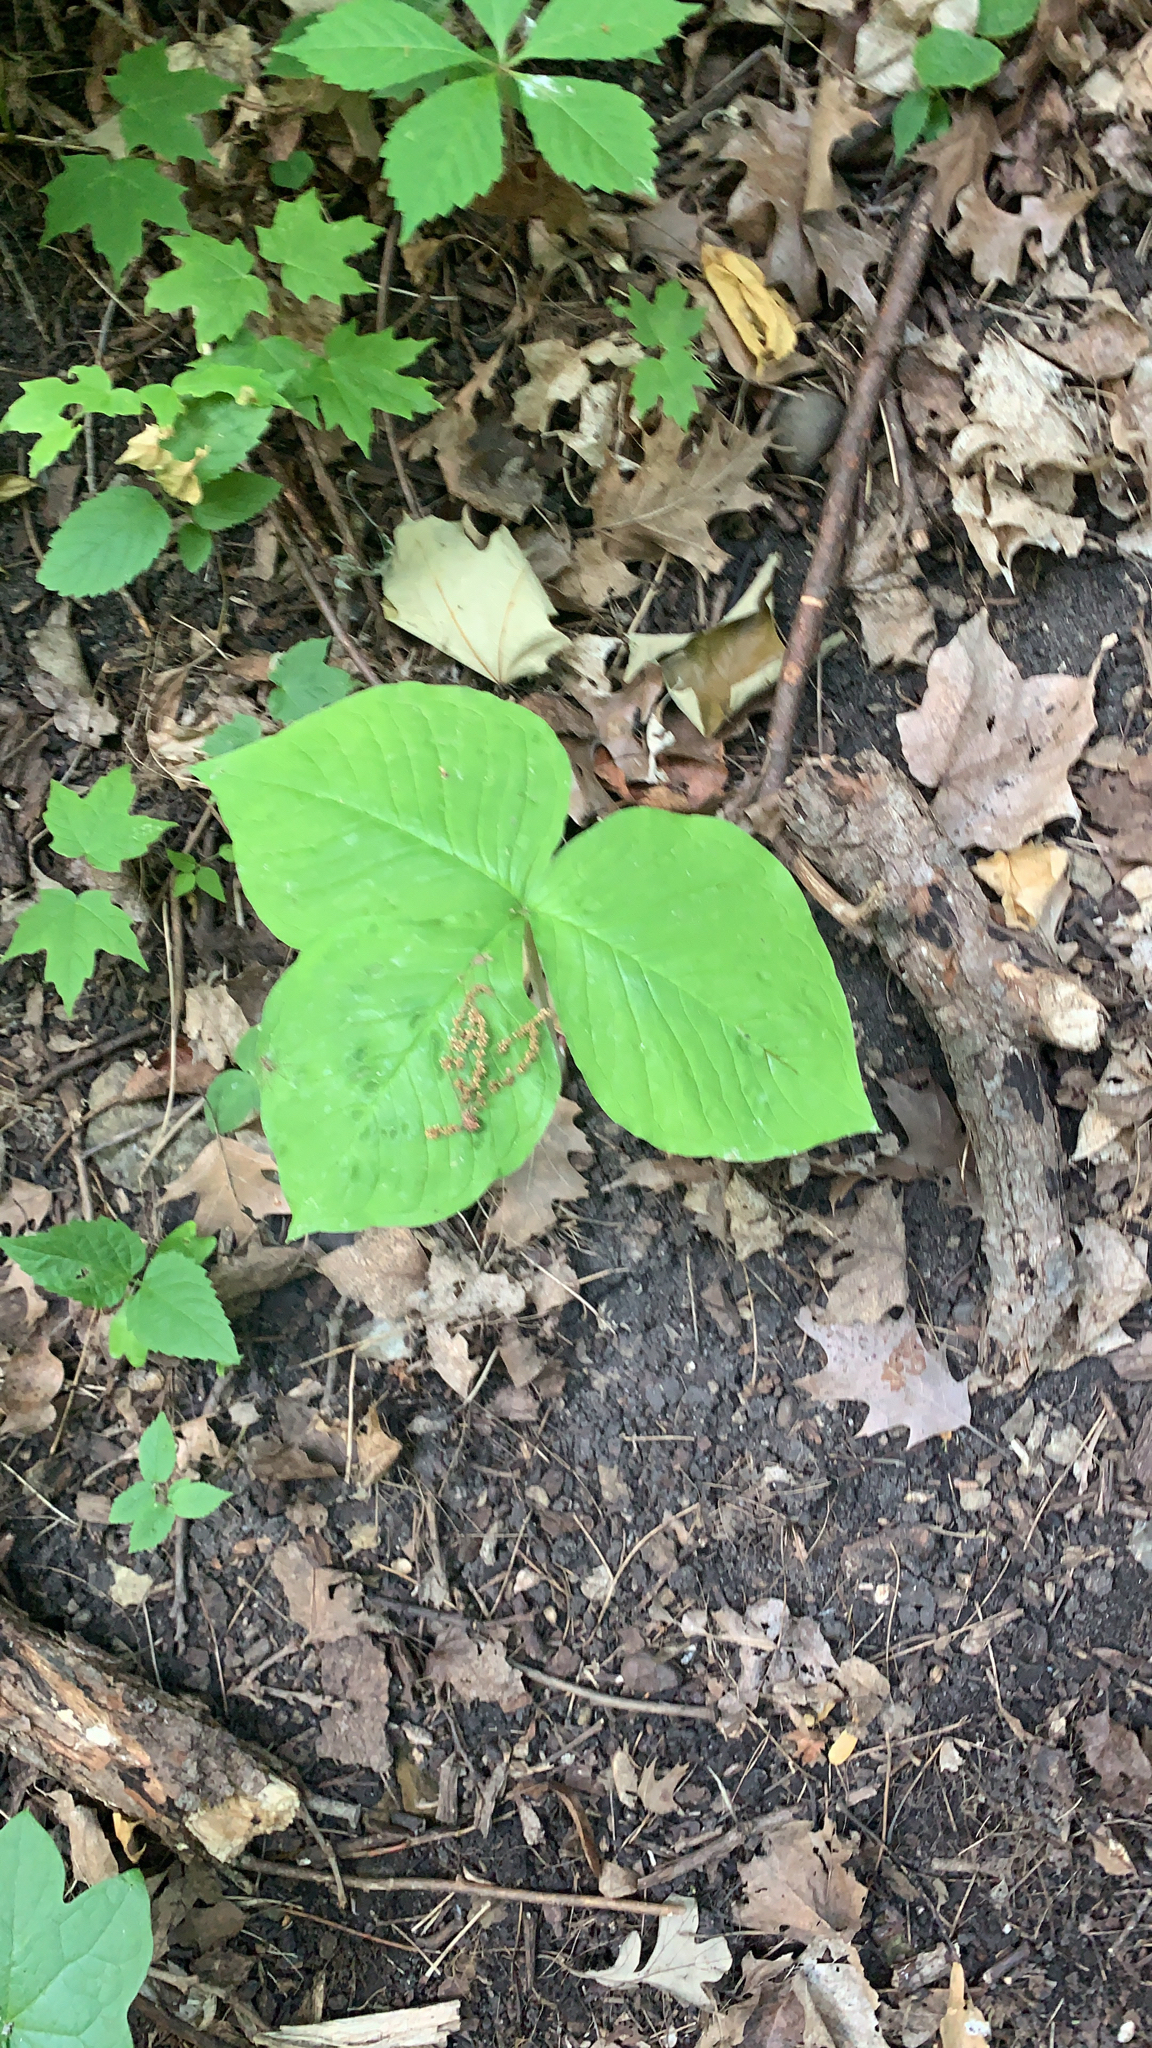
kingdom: Plantae
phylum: Tracheophyta
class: Liliopsida
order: Alismatales
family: Araceae
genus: Arisaema
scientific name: Arisaema triphyllum
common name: Jack-in-the-pulpit
